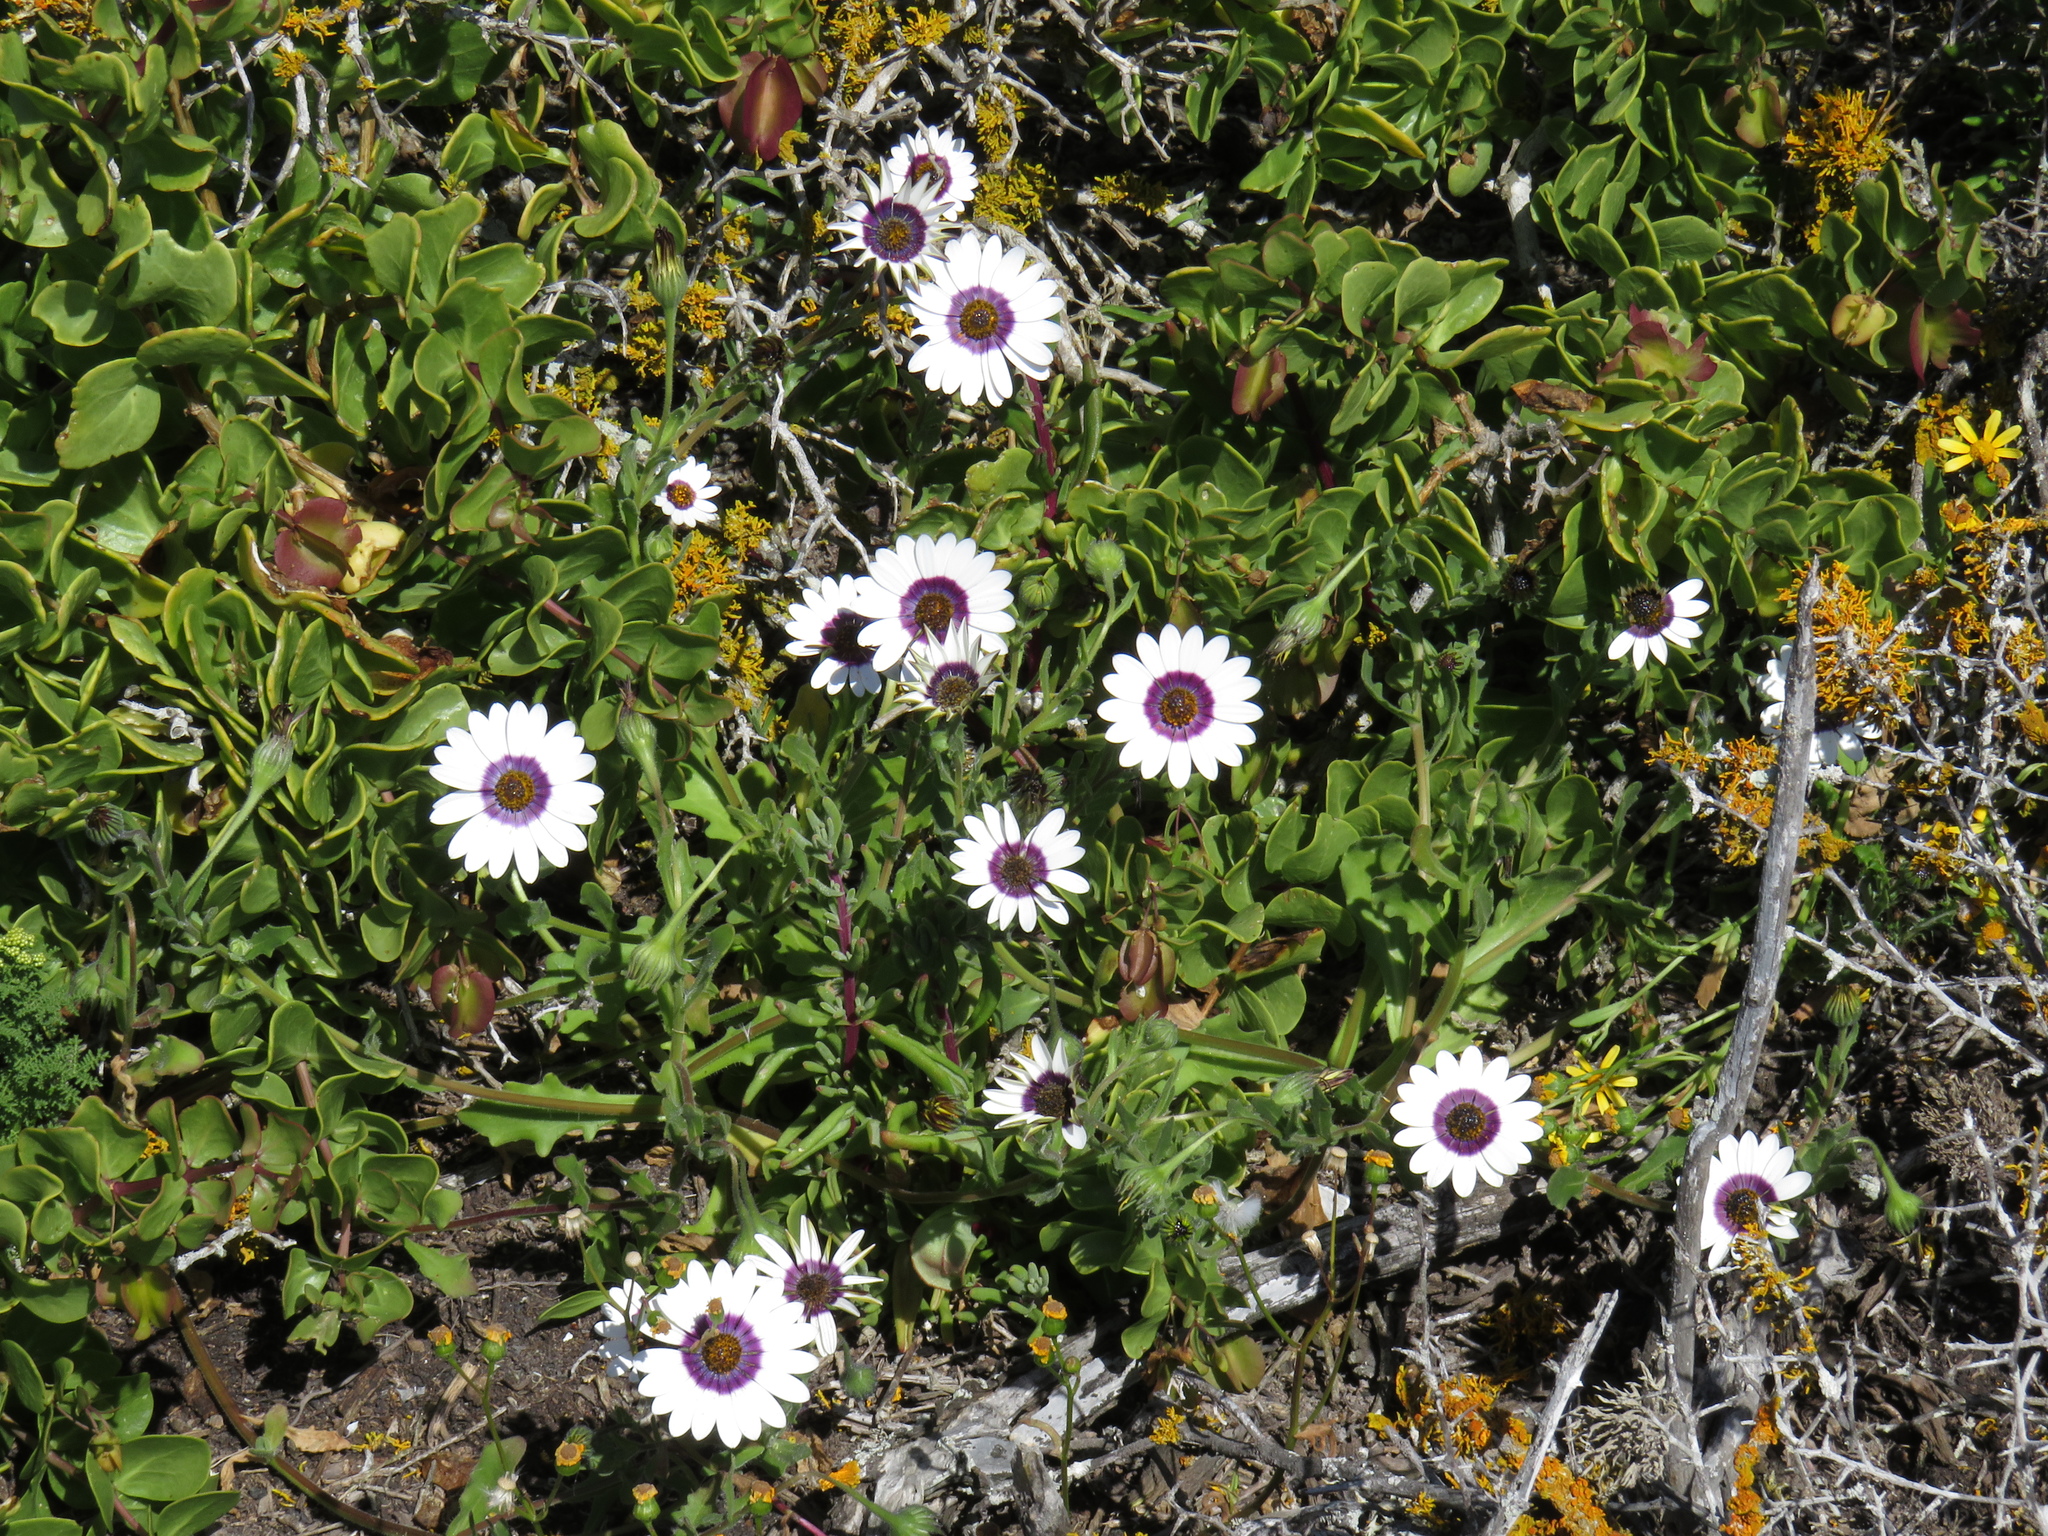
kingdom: Plantae
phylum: Tracheophyta
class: Magnoliopsida
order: Asterales
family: Asteraceae
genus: Dimorphotheca
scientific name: Dimorphotheca pluvialis
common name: Weather prophet
